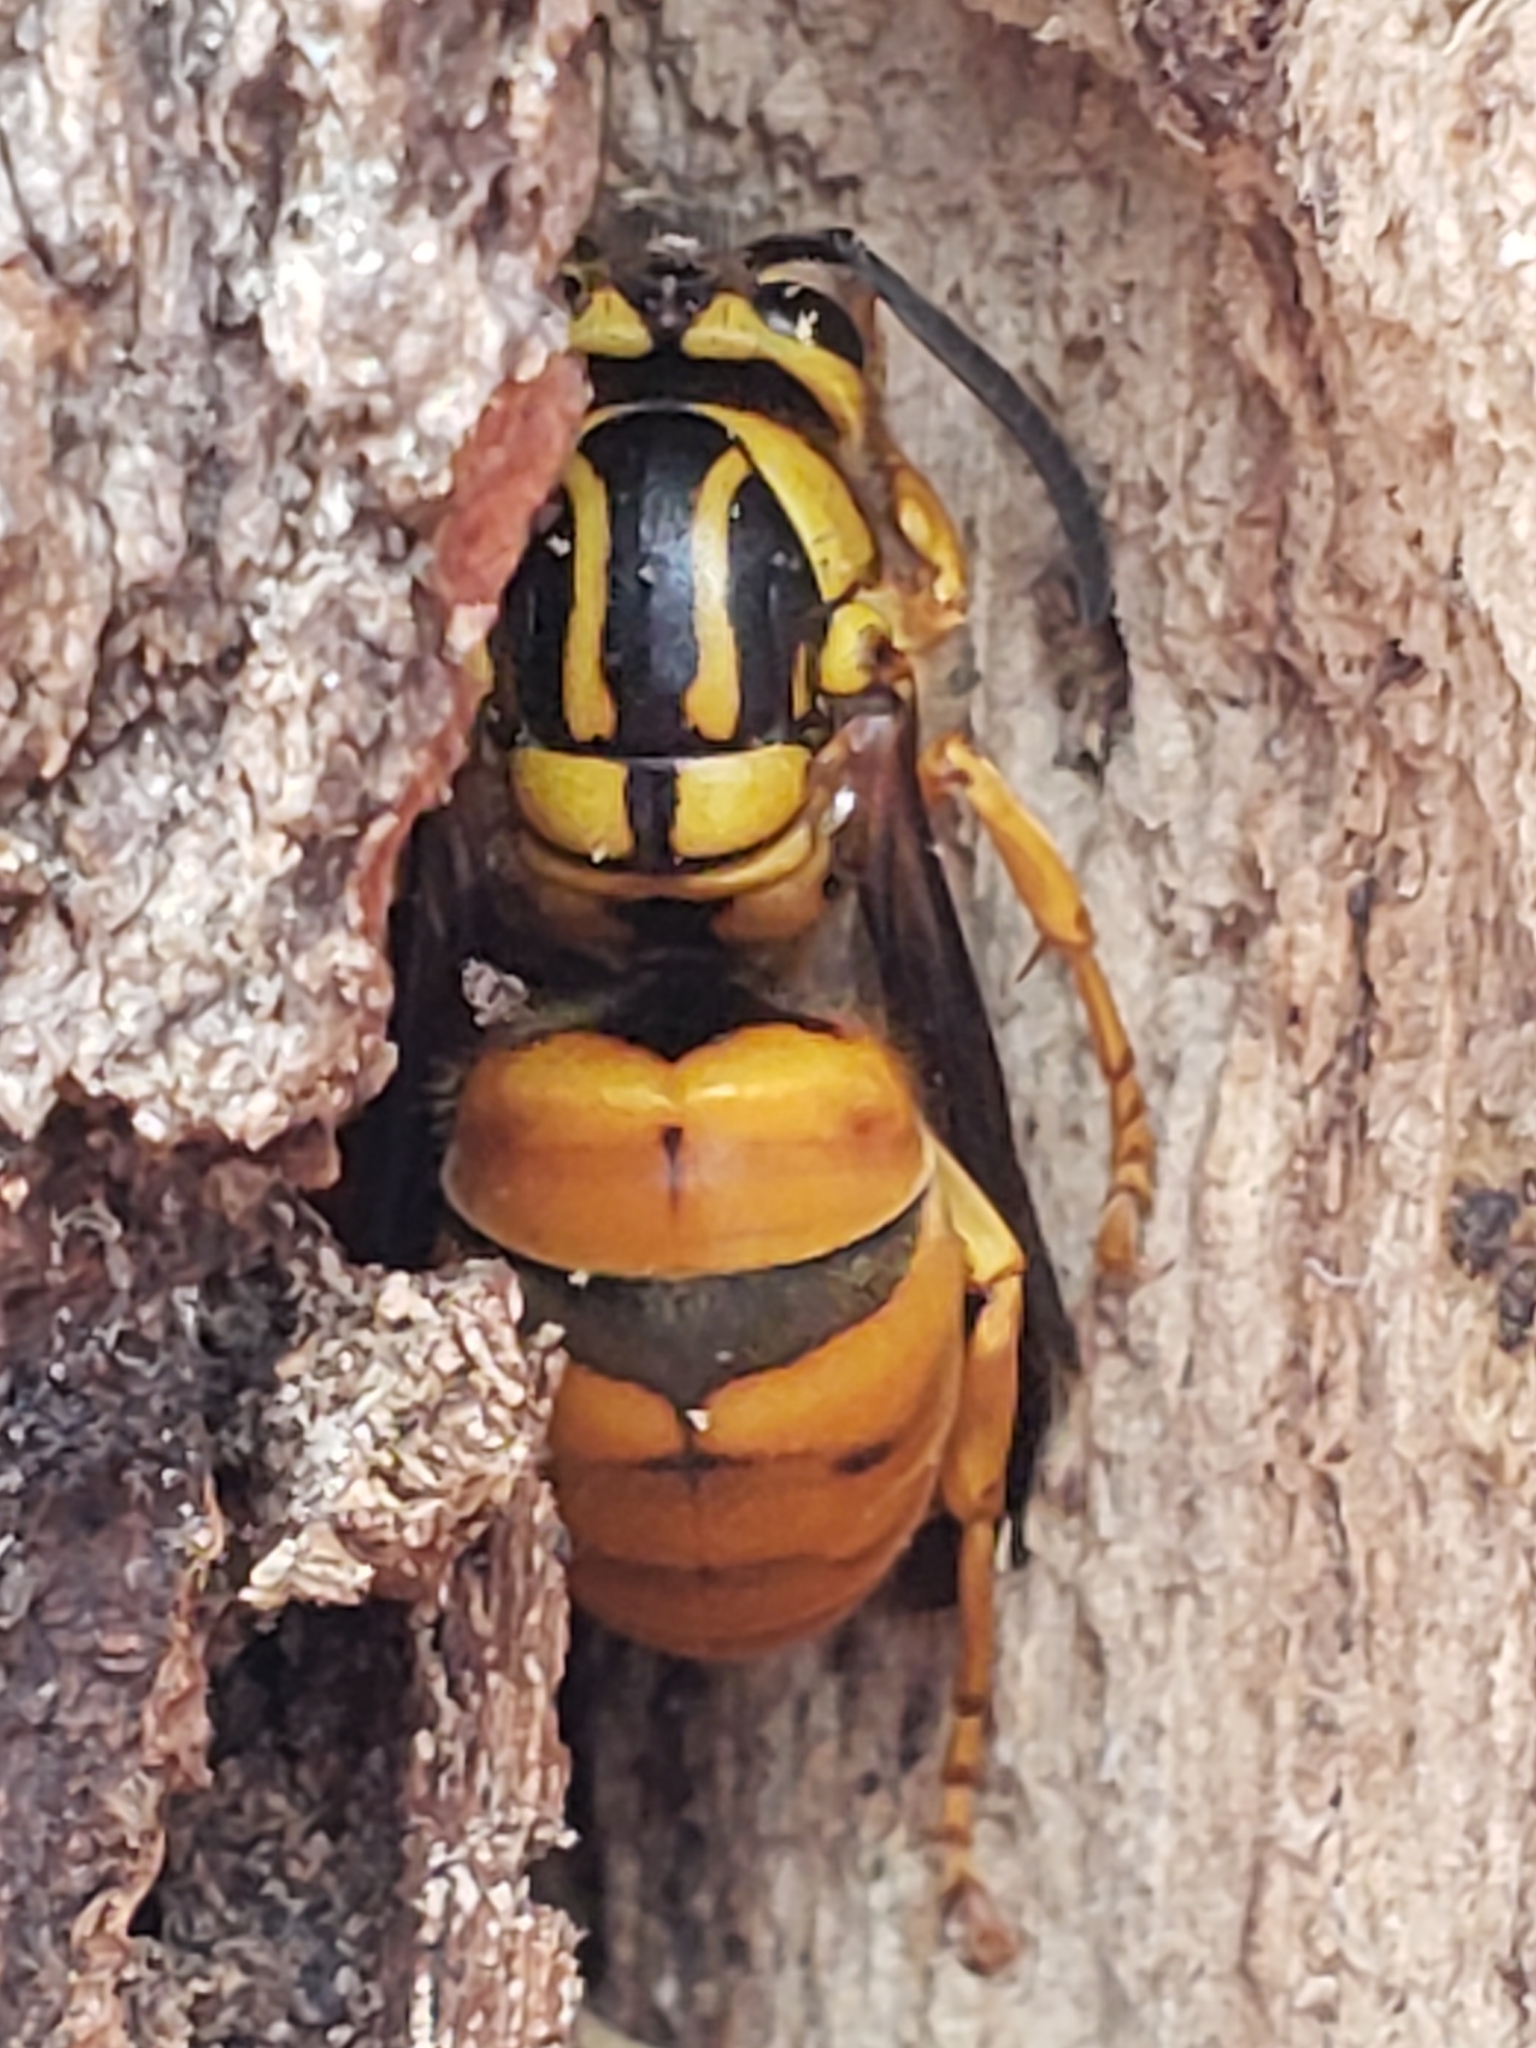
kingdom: Animalia
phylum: Arthropoda
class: Insecta
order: Hymenoptera
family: Vespidae
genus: Vespula
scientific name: Vespula squamosa
